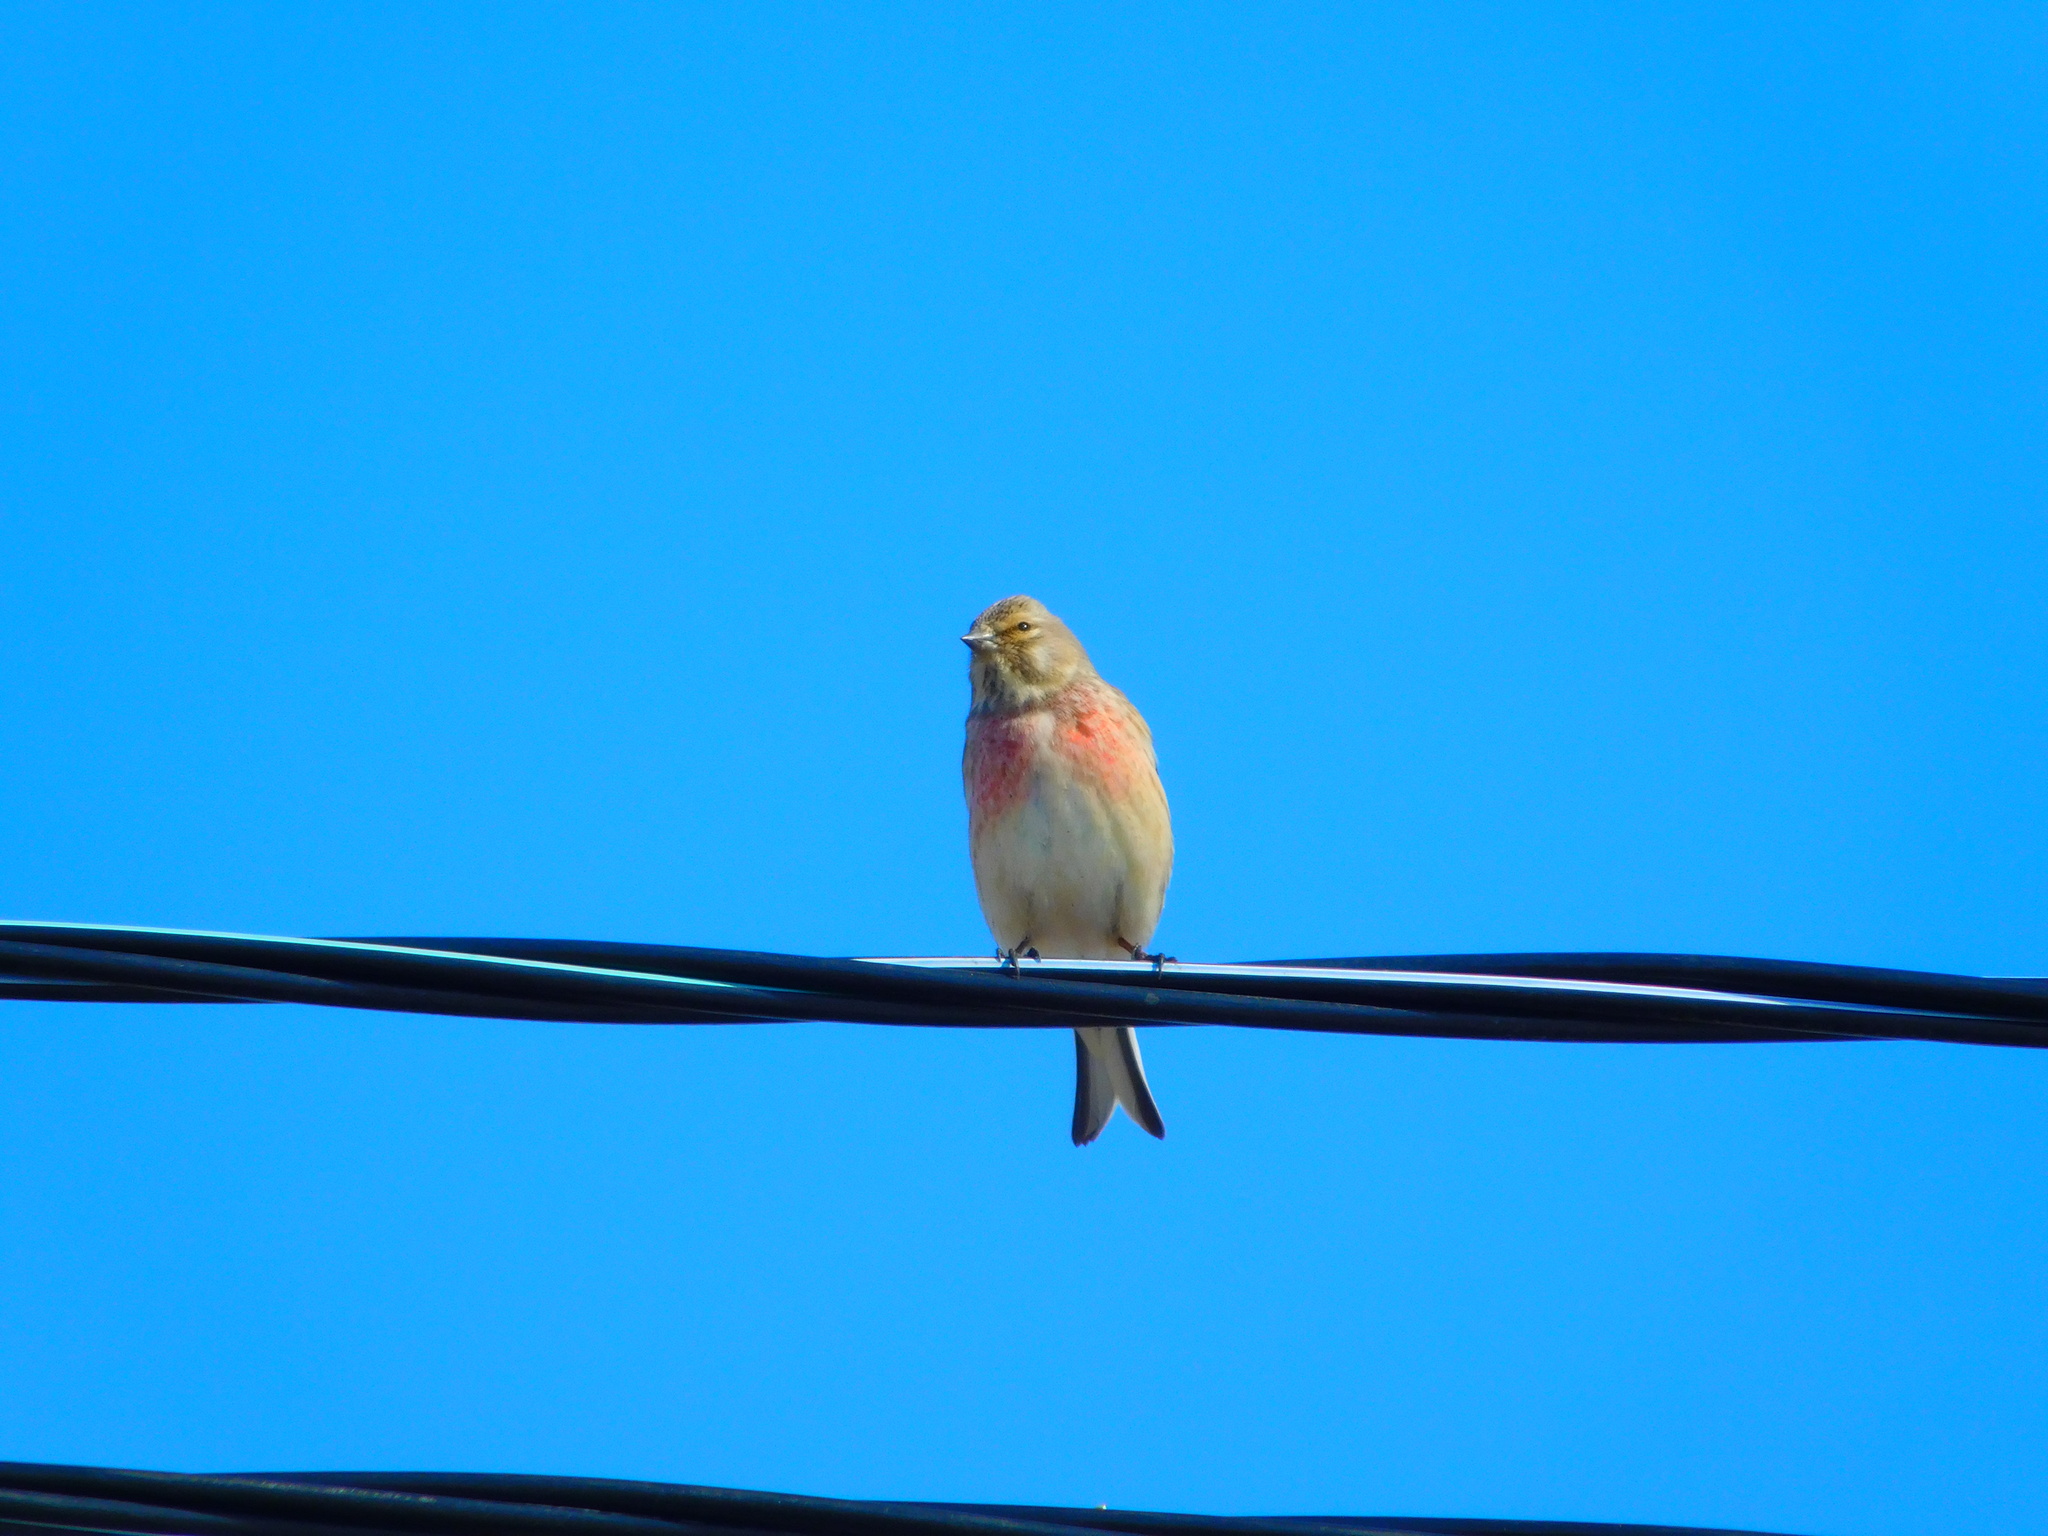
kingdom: Animalia
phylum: Chordata
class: Aves
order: Passeriformes
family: Fringillidae
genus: Linaria
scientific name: Linaria cannabina
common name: Common linnet
